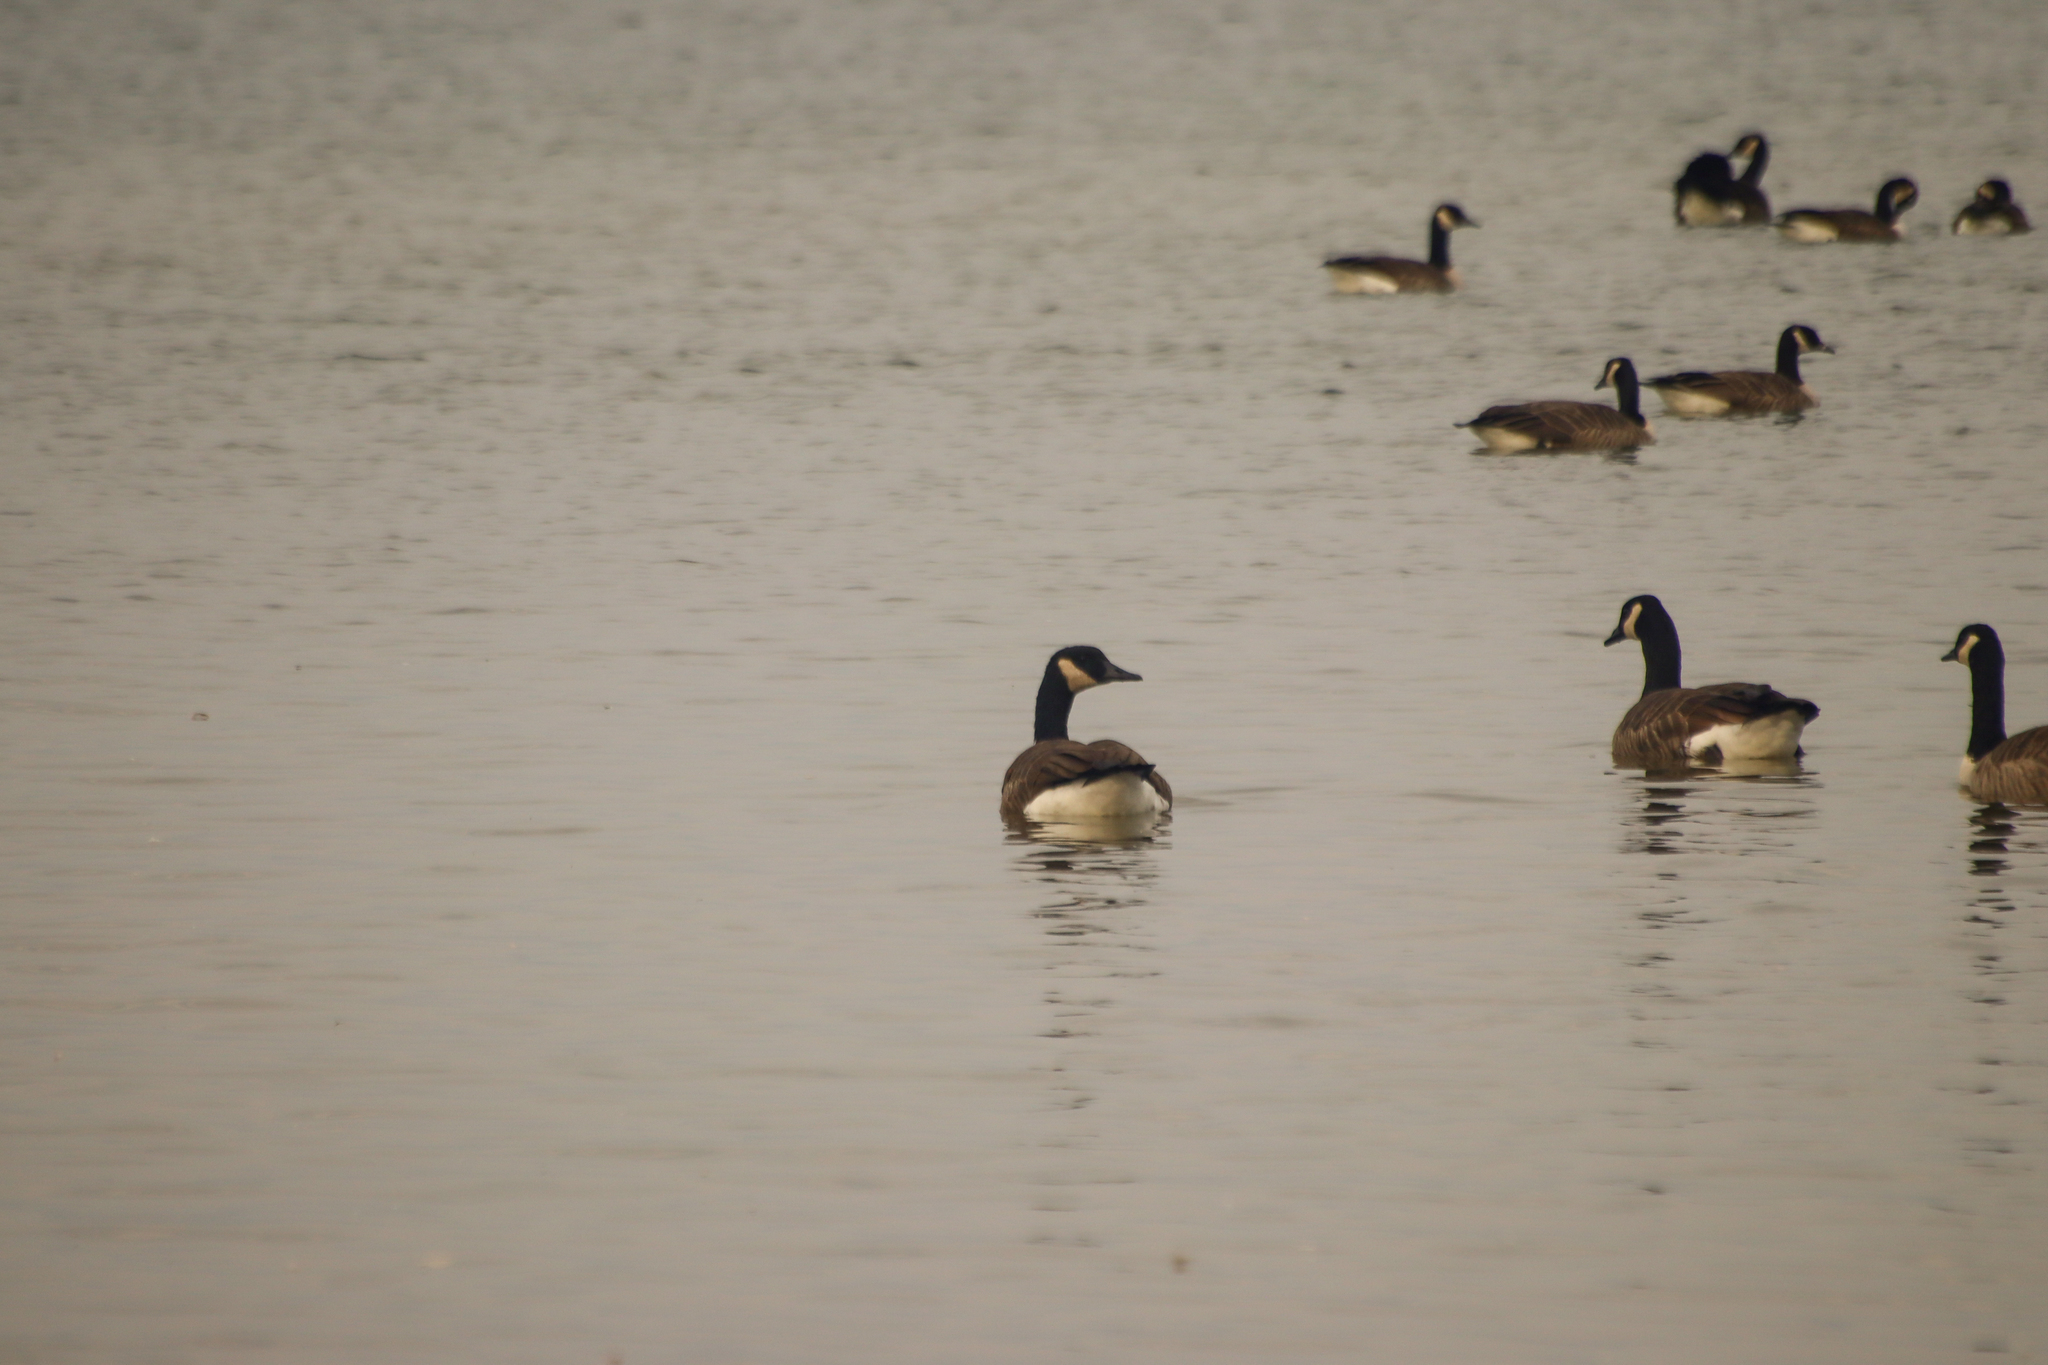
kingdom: Animalia
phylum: Chordata
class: Aves
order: Anseriformes
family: Anatidae
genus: Branta
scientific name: Branta canadensis
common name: Canada goose
